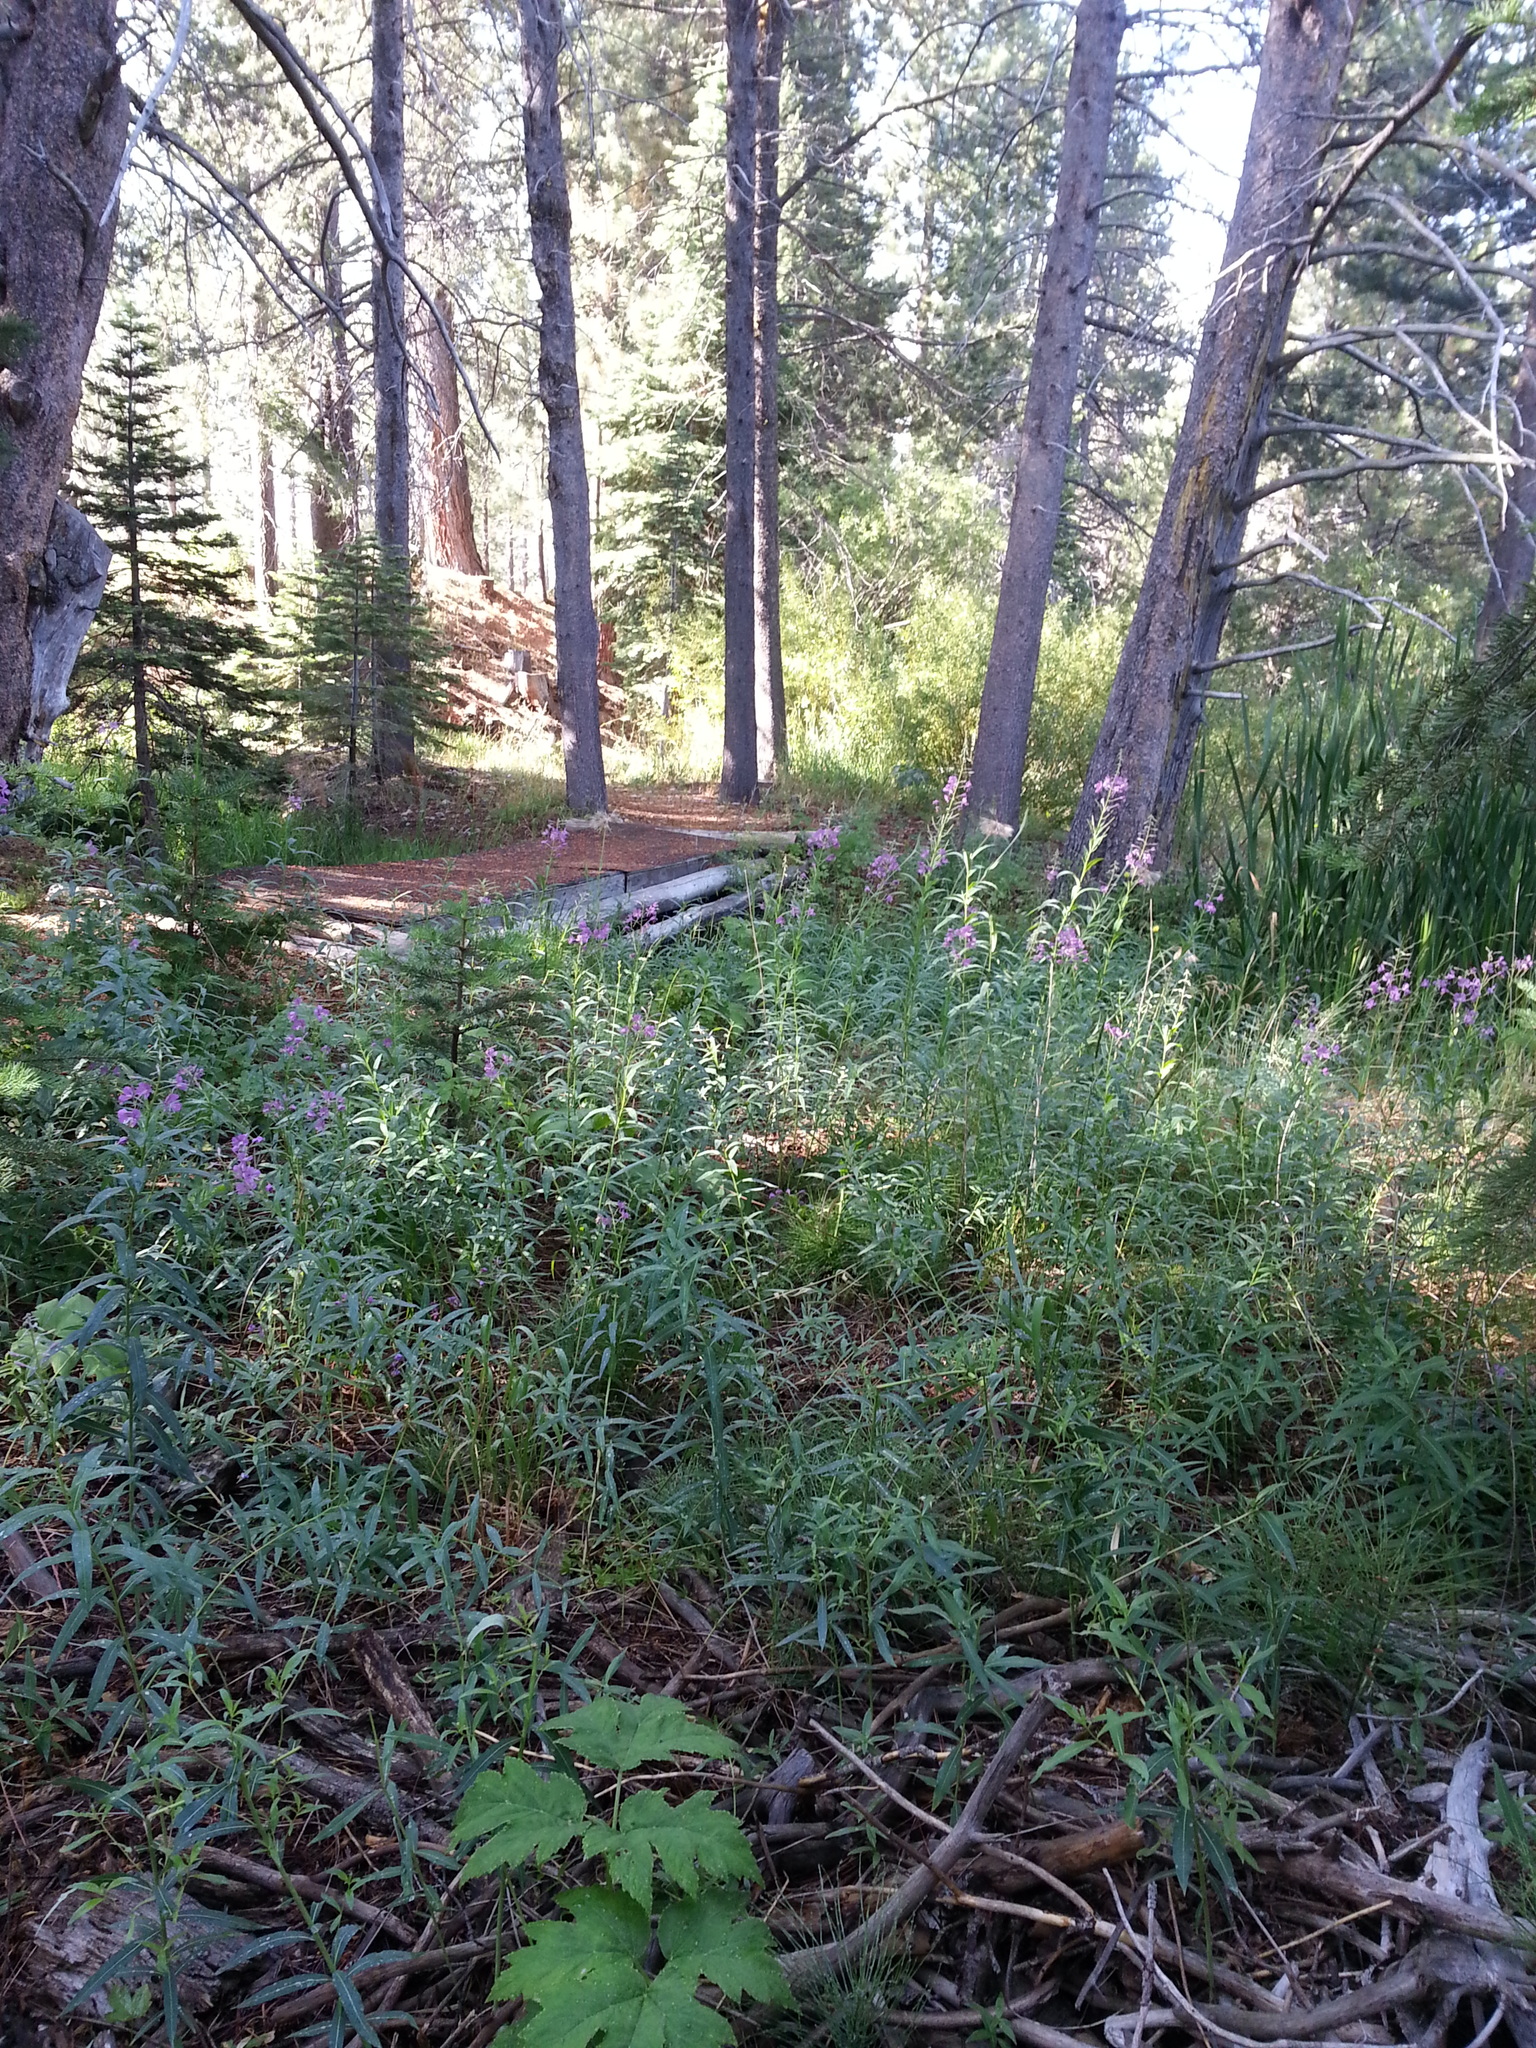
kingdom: Plantae
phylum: Tracheophyta
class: Magnoliopsida
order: Myrtales
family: Onagraceae
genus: Chamaenerion
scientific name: Chamaenerion angustifolium
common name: Fireweed
